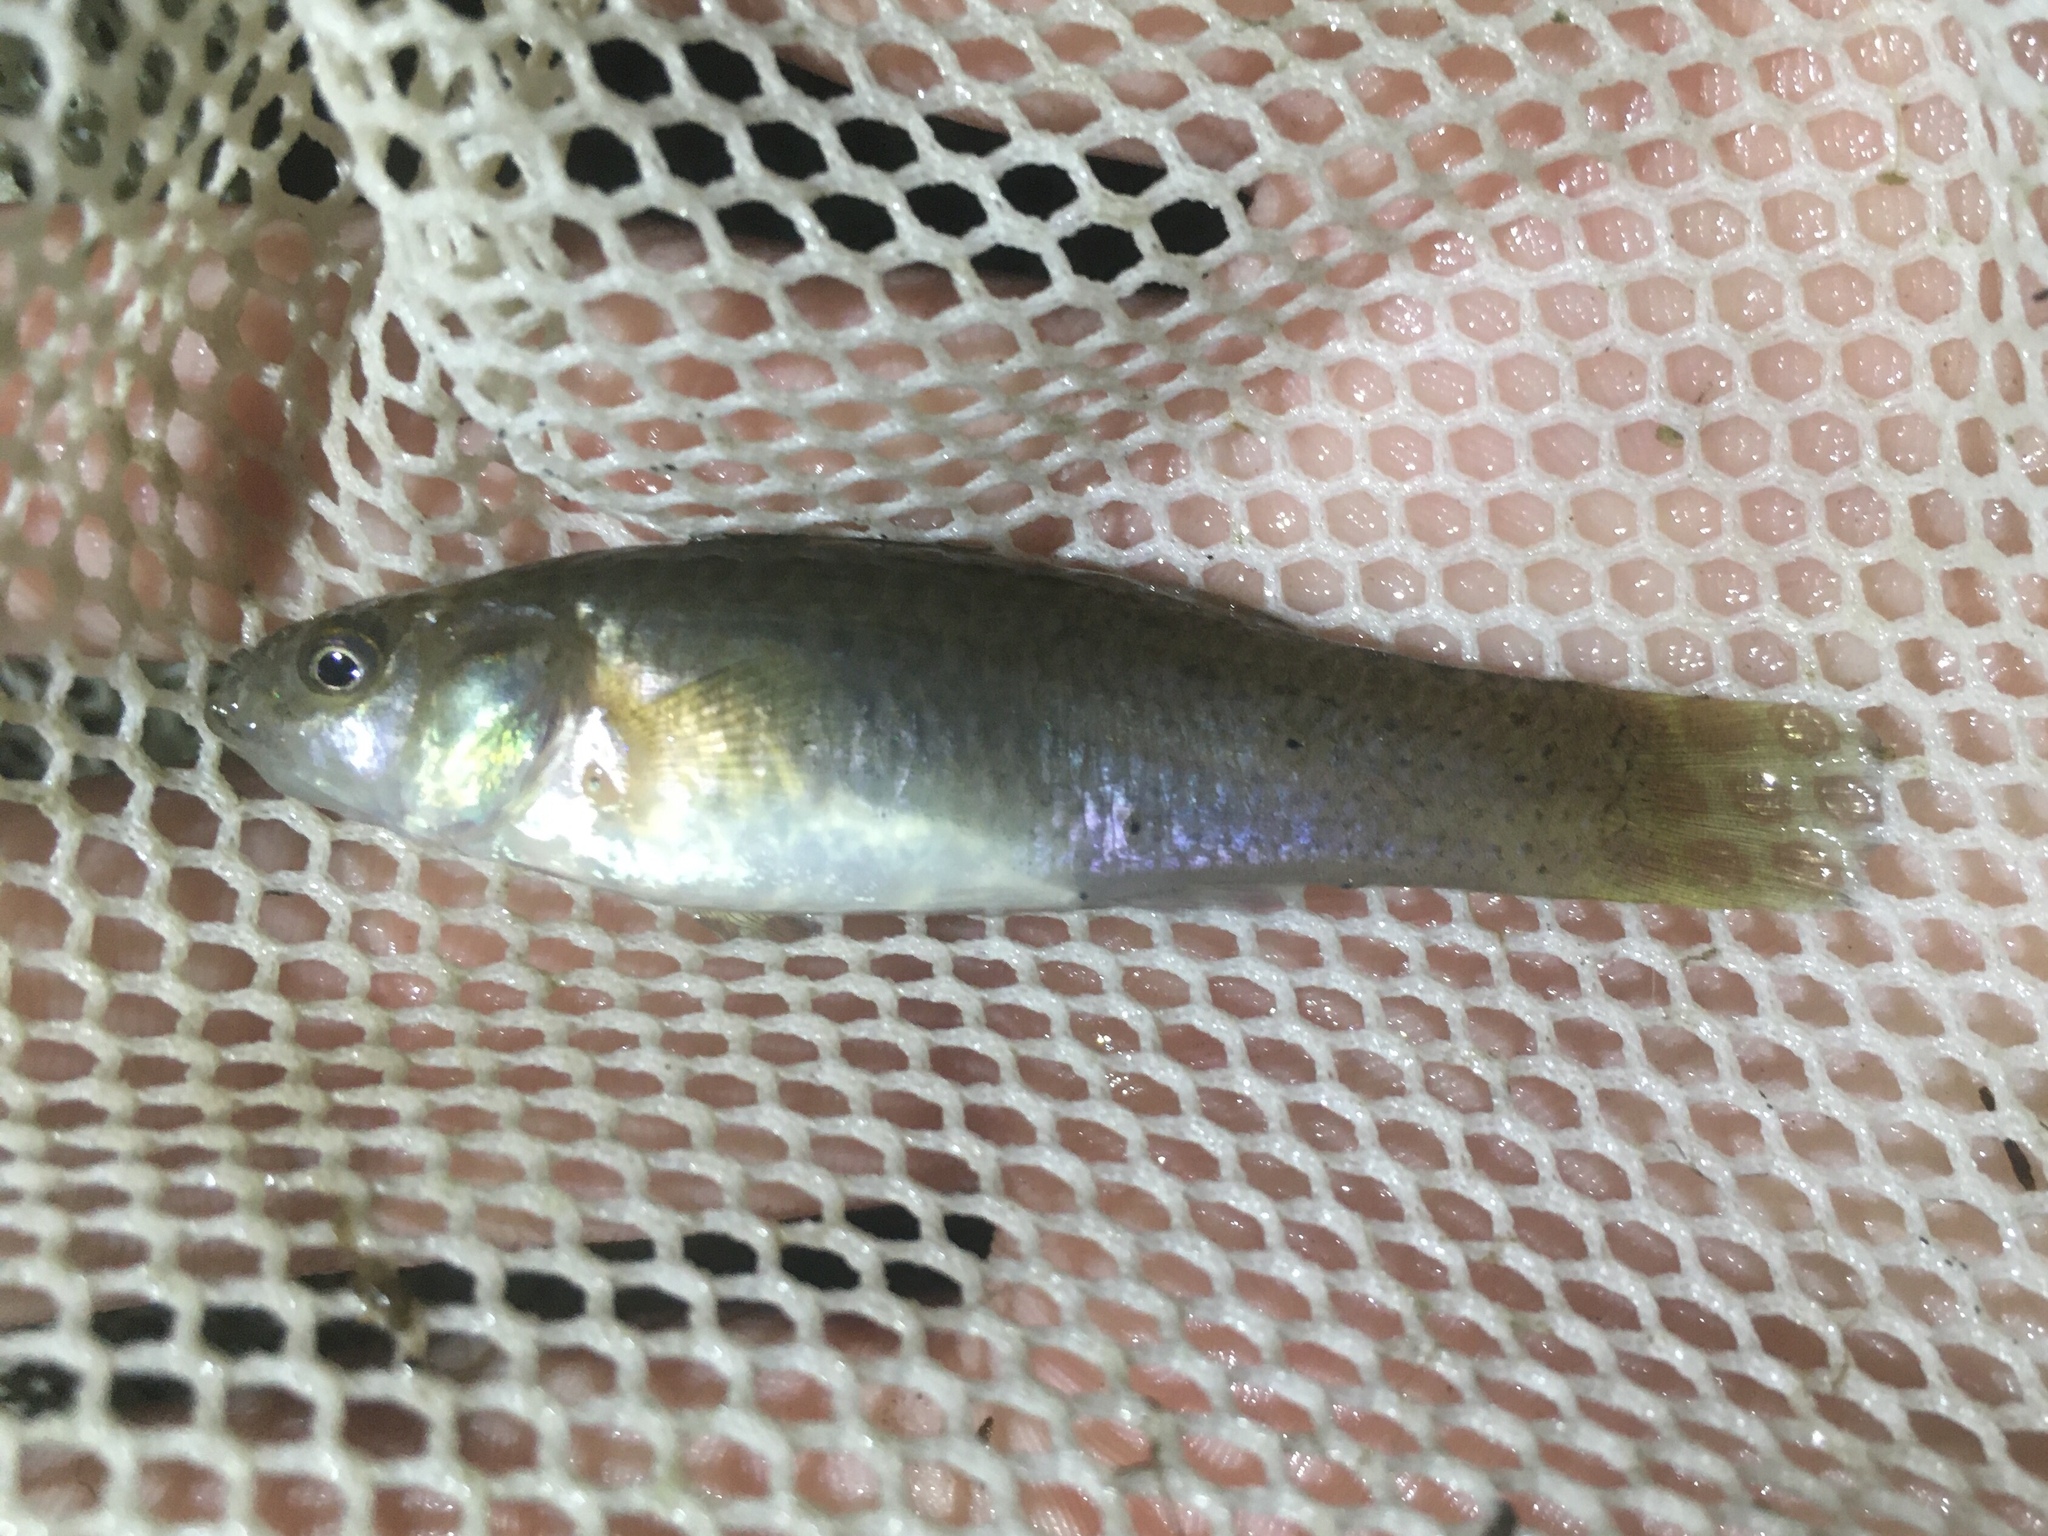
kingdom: Animalia
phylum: Chordata
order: Cyprinodontiformes
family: Anablepidae
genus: Jenynsia
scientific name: Jenynsia lineata
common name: Onesided livebearer
